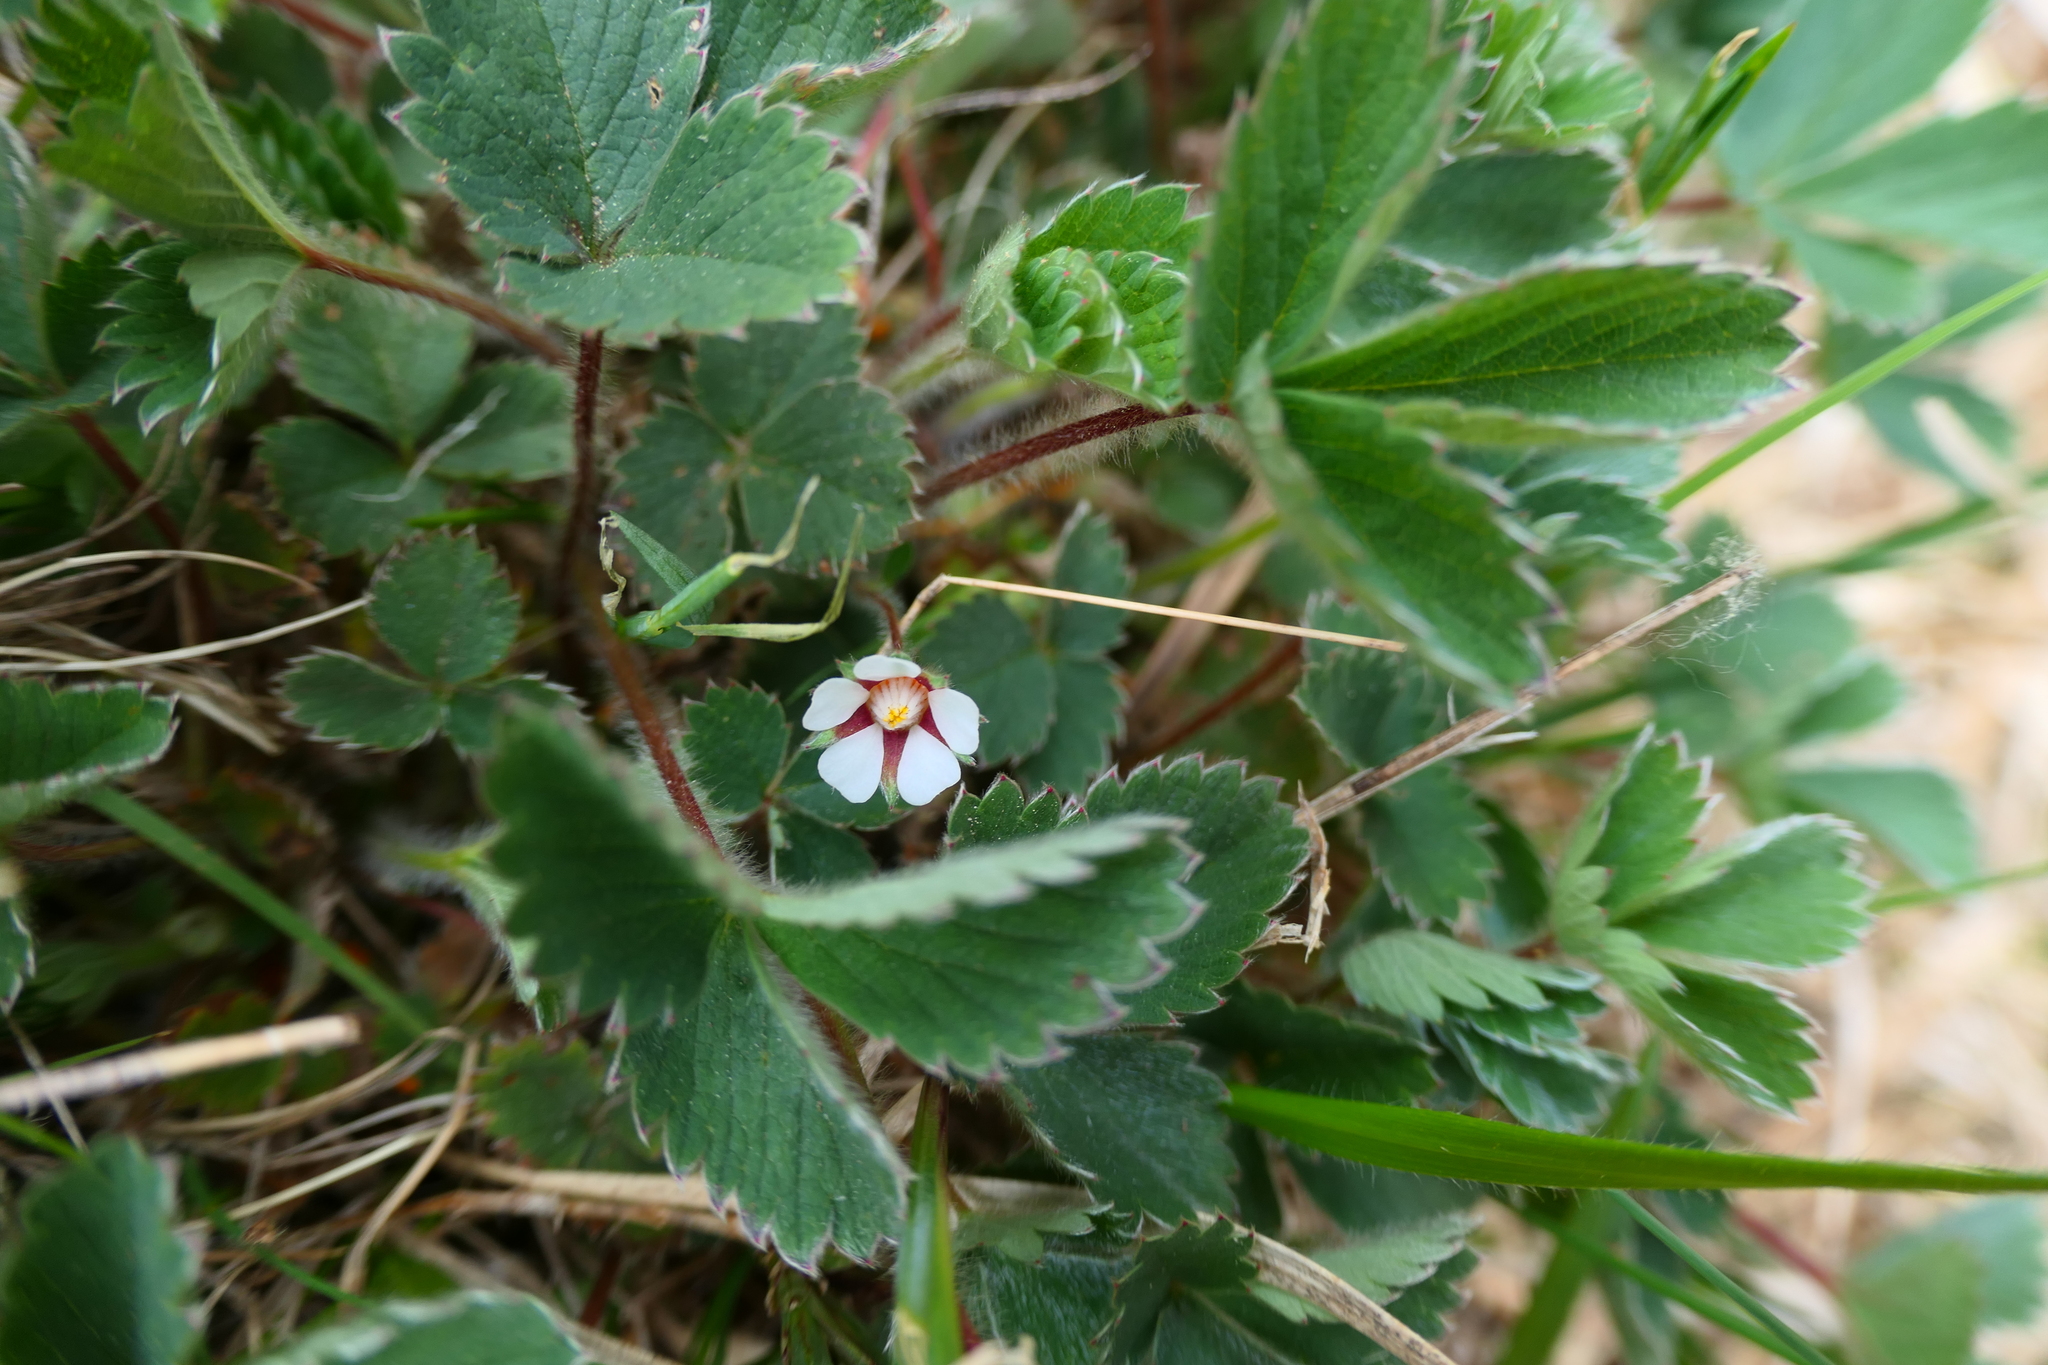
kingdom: Plantae
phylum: Tracheophyta
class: Magnoliopsida
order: Rosales
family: Rosaceae
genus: Potentilla
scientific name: Potentilla micrantha
